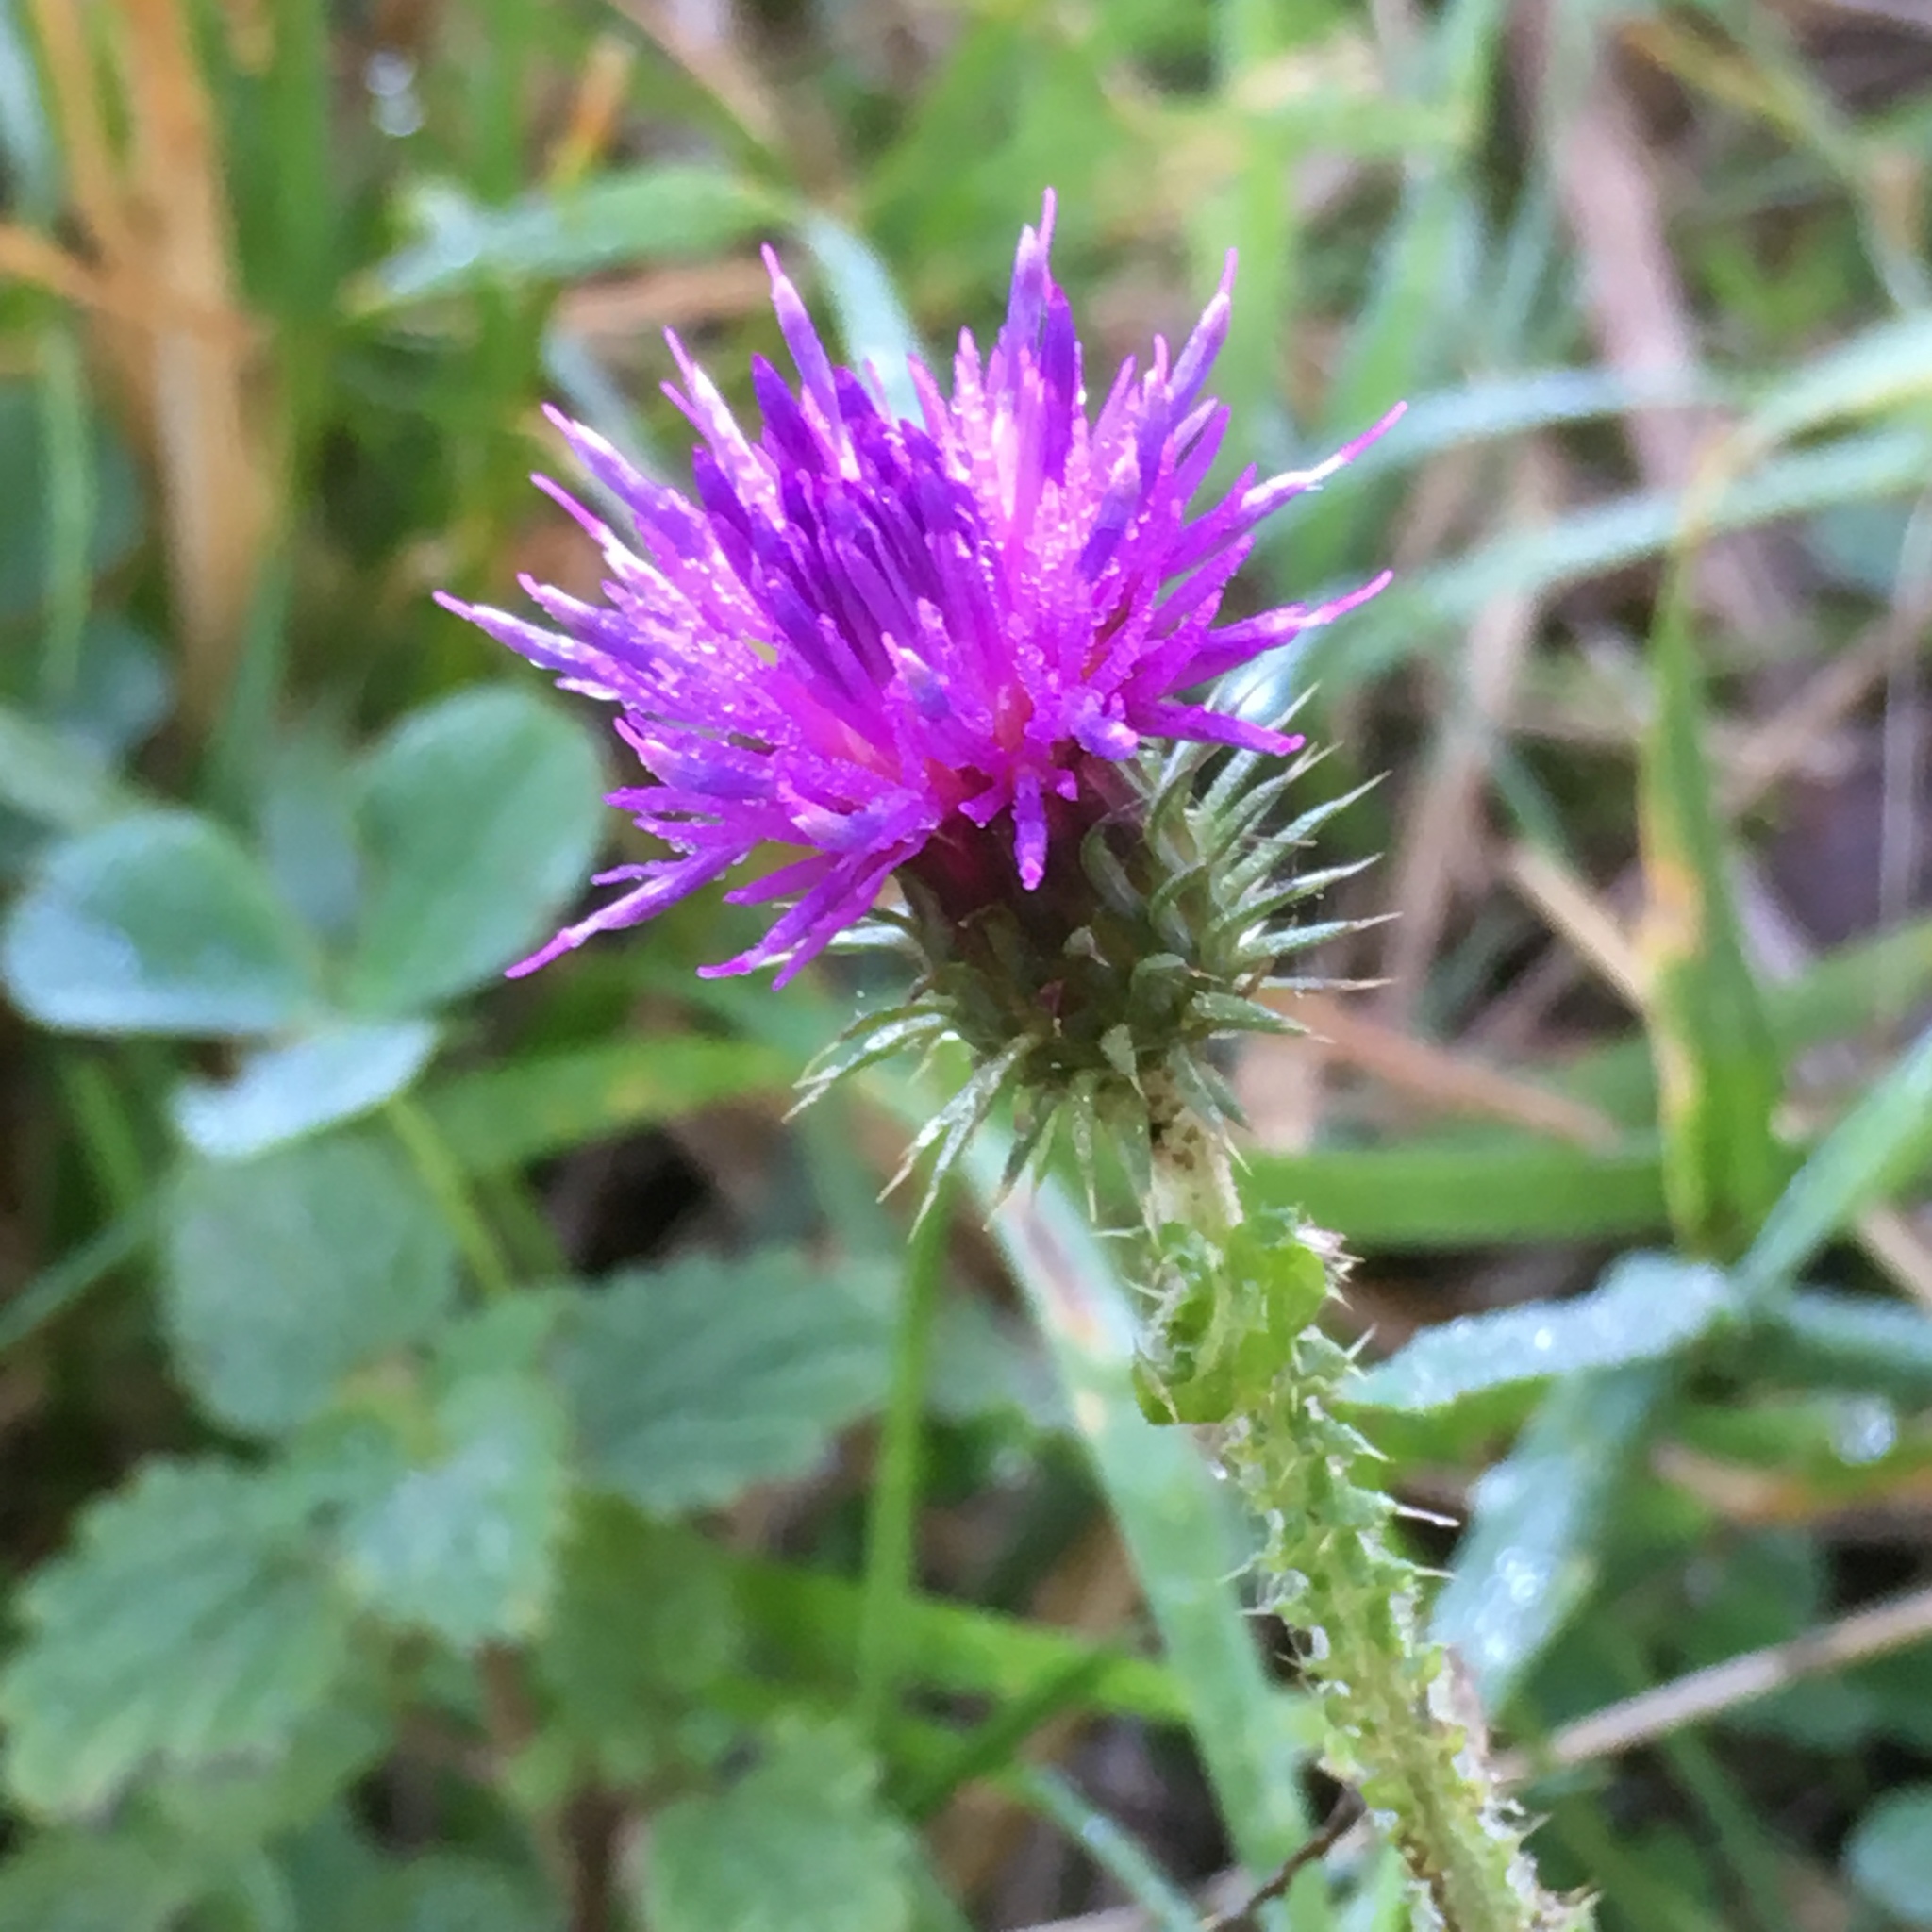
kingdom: Plantae
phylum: Tracheophyta
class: Magnoliopsida
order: Asterales
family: Asteraceae
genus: Carduus
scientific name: Carduus crispus
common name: Welted thistle
